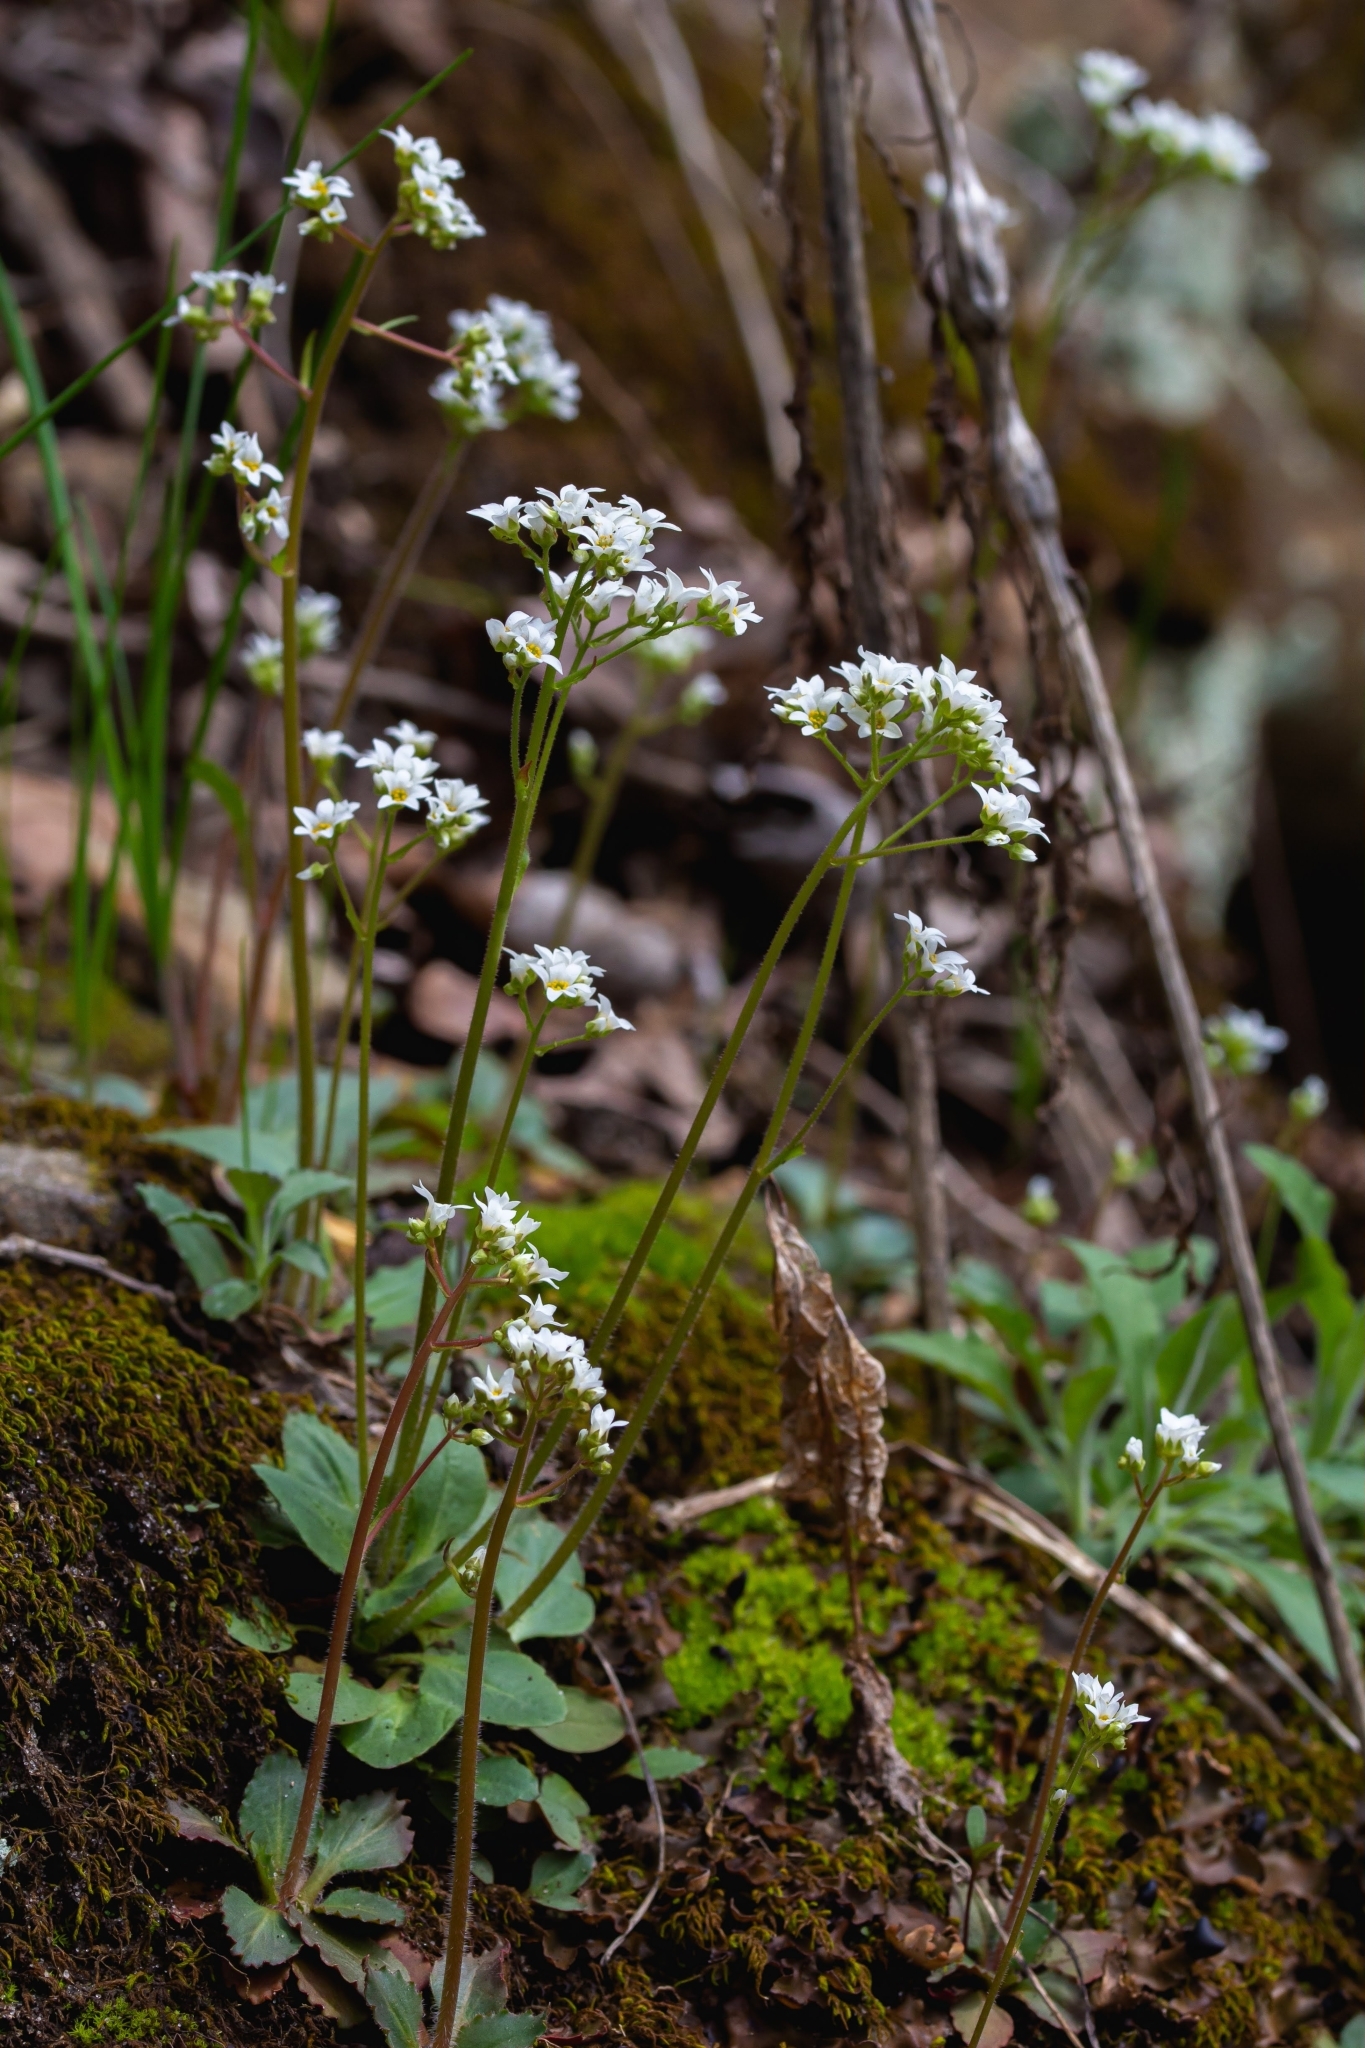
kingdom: Plantae
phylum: Tracheophyta
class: Magnoliopsida
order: Saxifragales
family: Saxifragaceae
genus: Micranthes
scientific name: Micranthes virginiensis
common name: Early saxifrage
